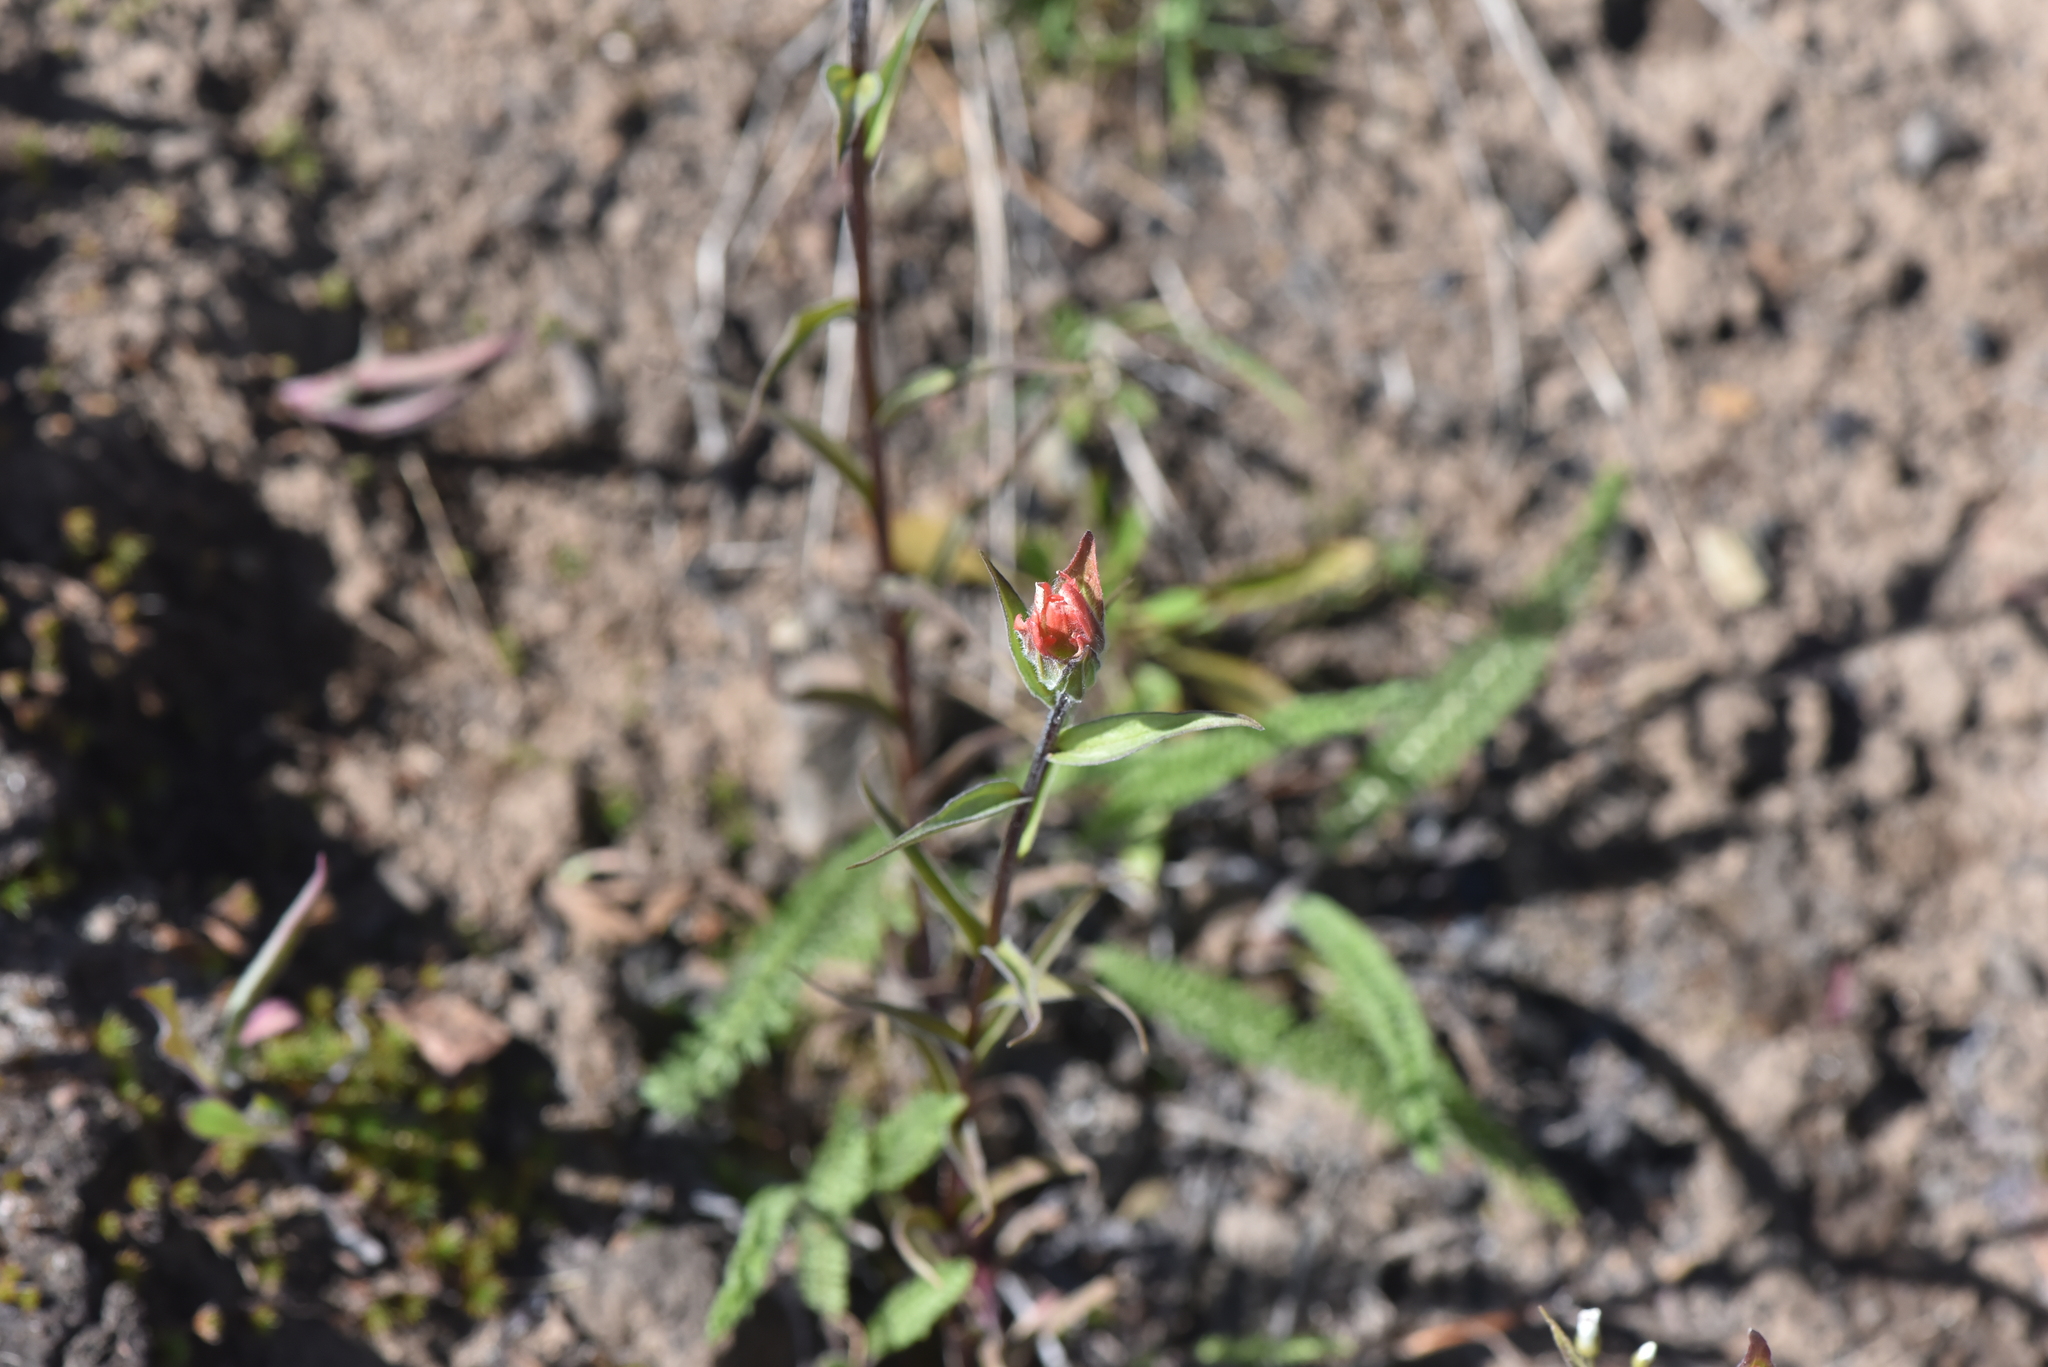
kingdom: Plantae
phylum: Tracheophyta
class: Magnoliopsida
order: Lamiales
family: Orobanchaceae
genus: Castilleja
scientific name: Castilleja miniata
